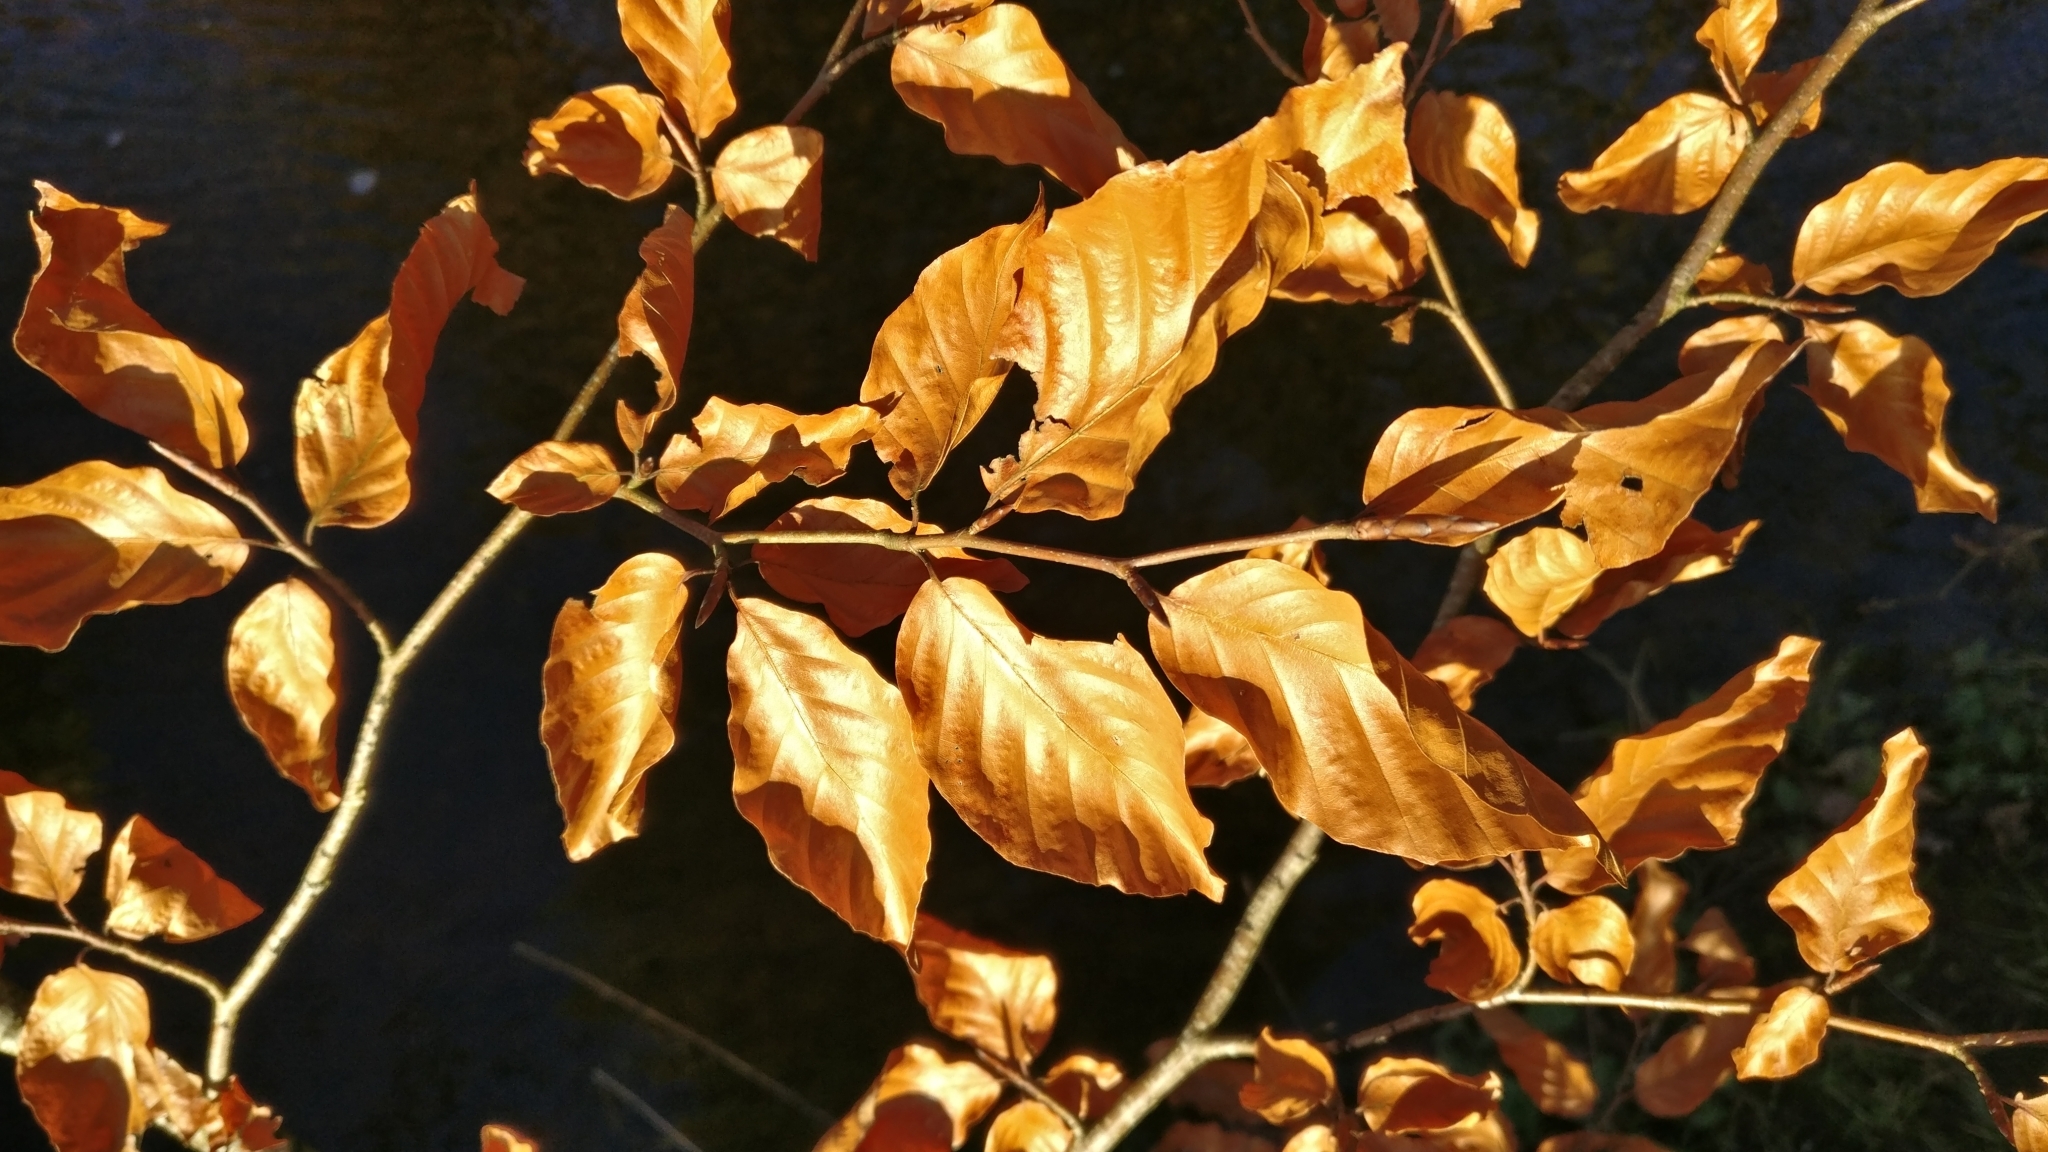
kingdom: Plantae
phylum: Tracheophyta
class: Magnoliopsida
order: Fagales
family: Fagaceae
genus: Fagus
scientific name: Fagus sylvatica
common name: Beech
